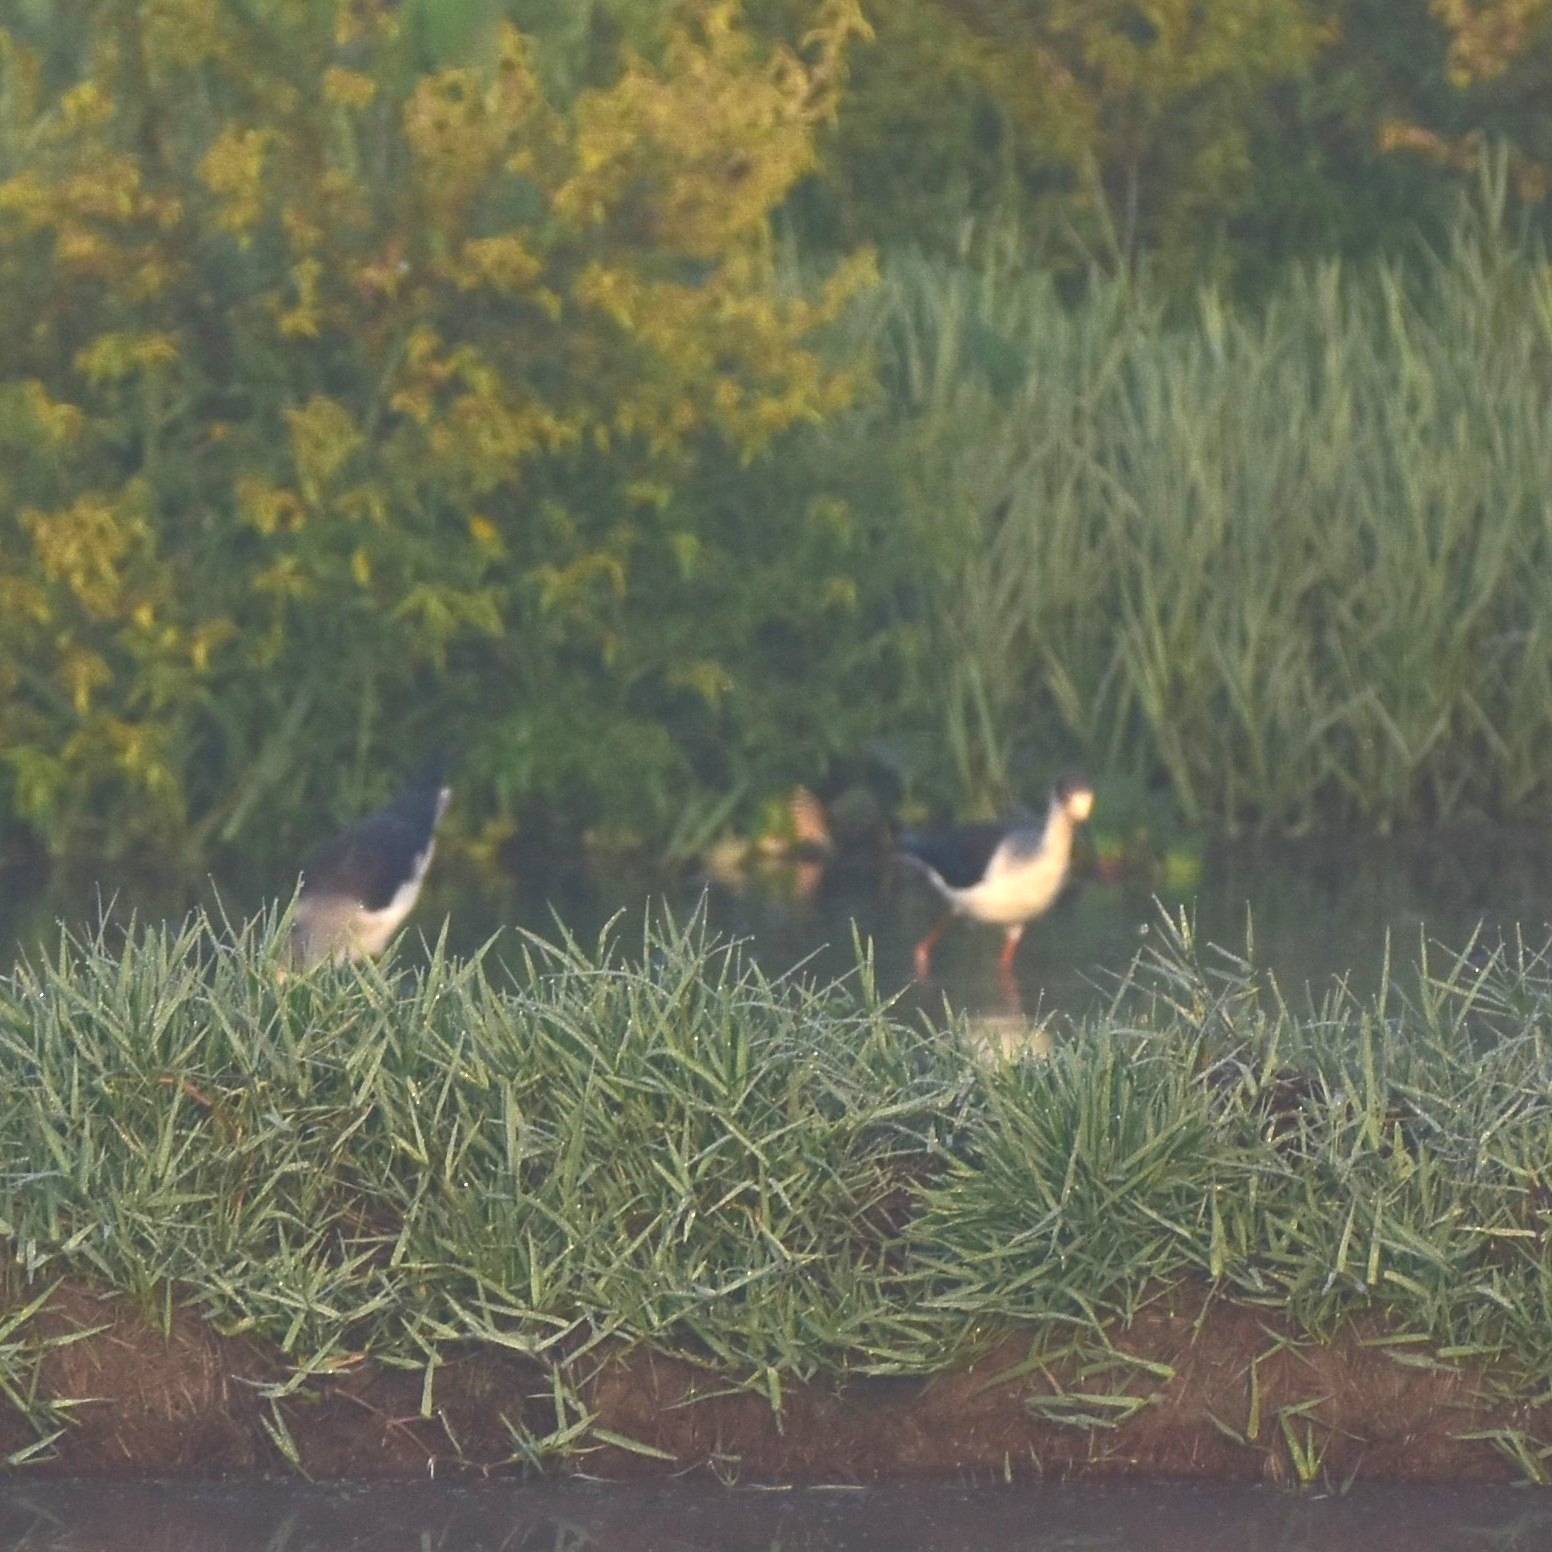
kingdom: Animalia
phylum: Chordata
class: Aves
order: Charadriiformes
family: Recurvirostridae
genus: Himantopus
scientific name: Himantopus himantopus
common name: Black-winged stilt
